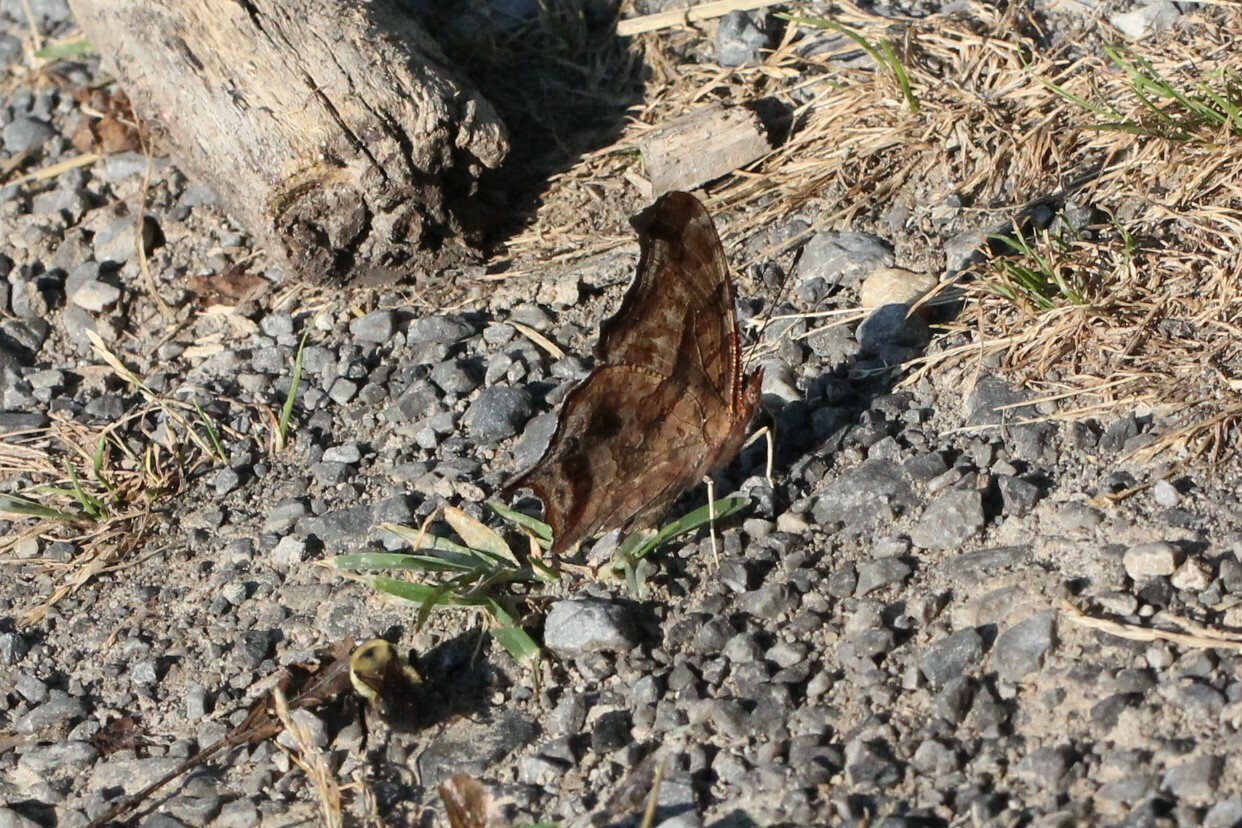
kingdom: Animalia
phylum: Arthropoda
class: Insecta
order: Lepidoptera
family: Nymphalidae
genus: Polygonia
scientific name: Polygonia interrogationis
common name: Question mark
